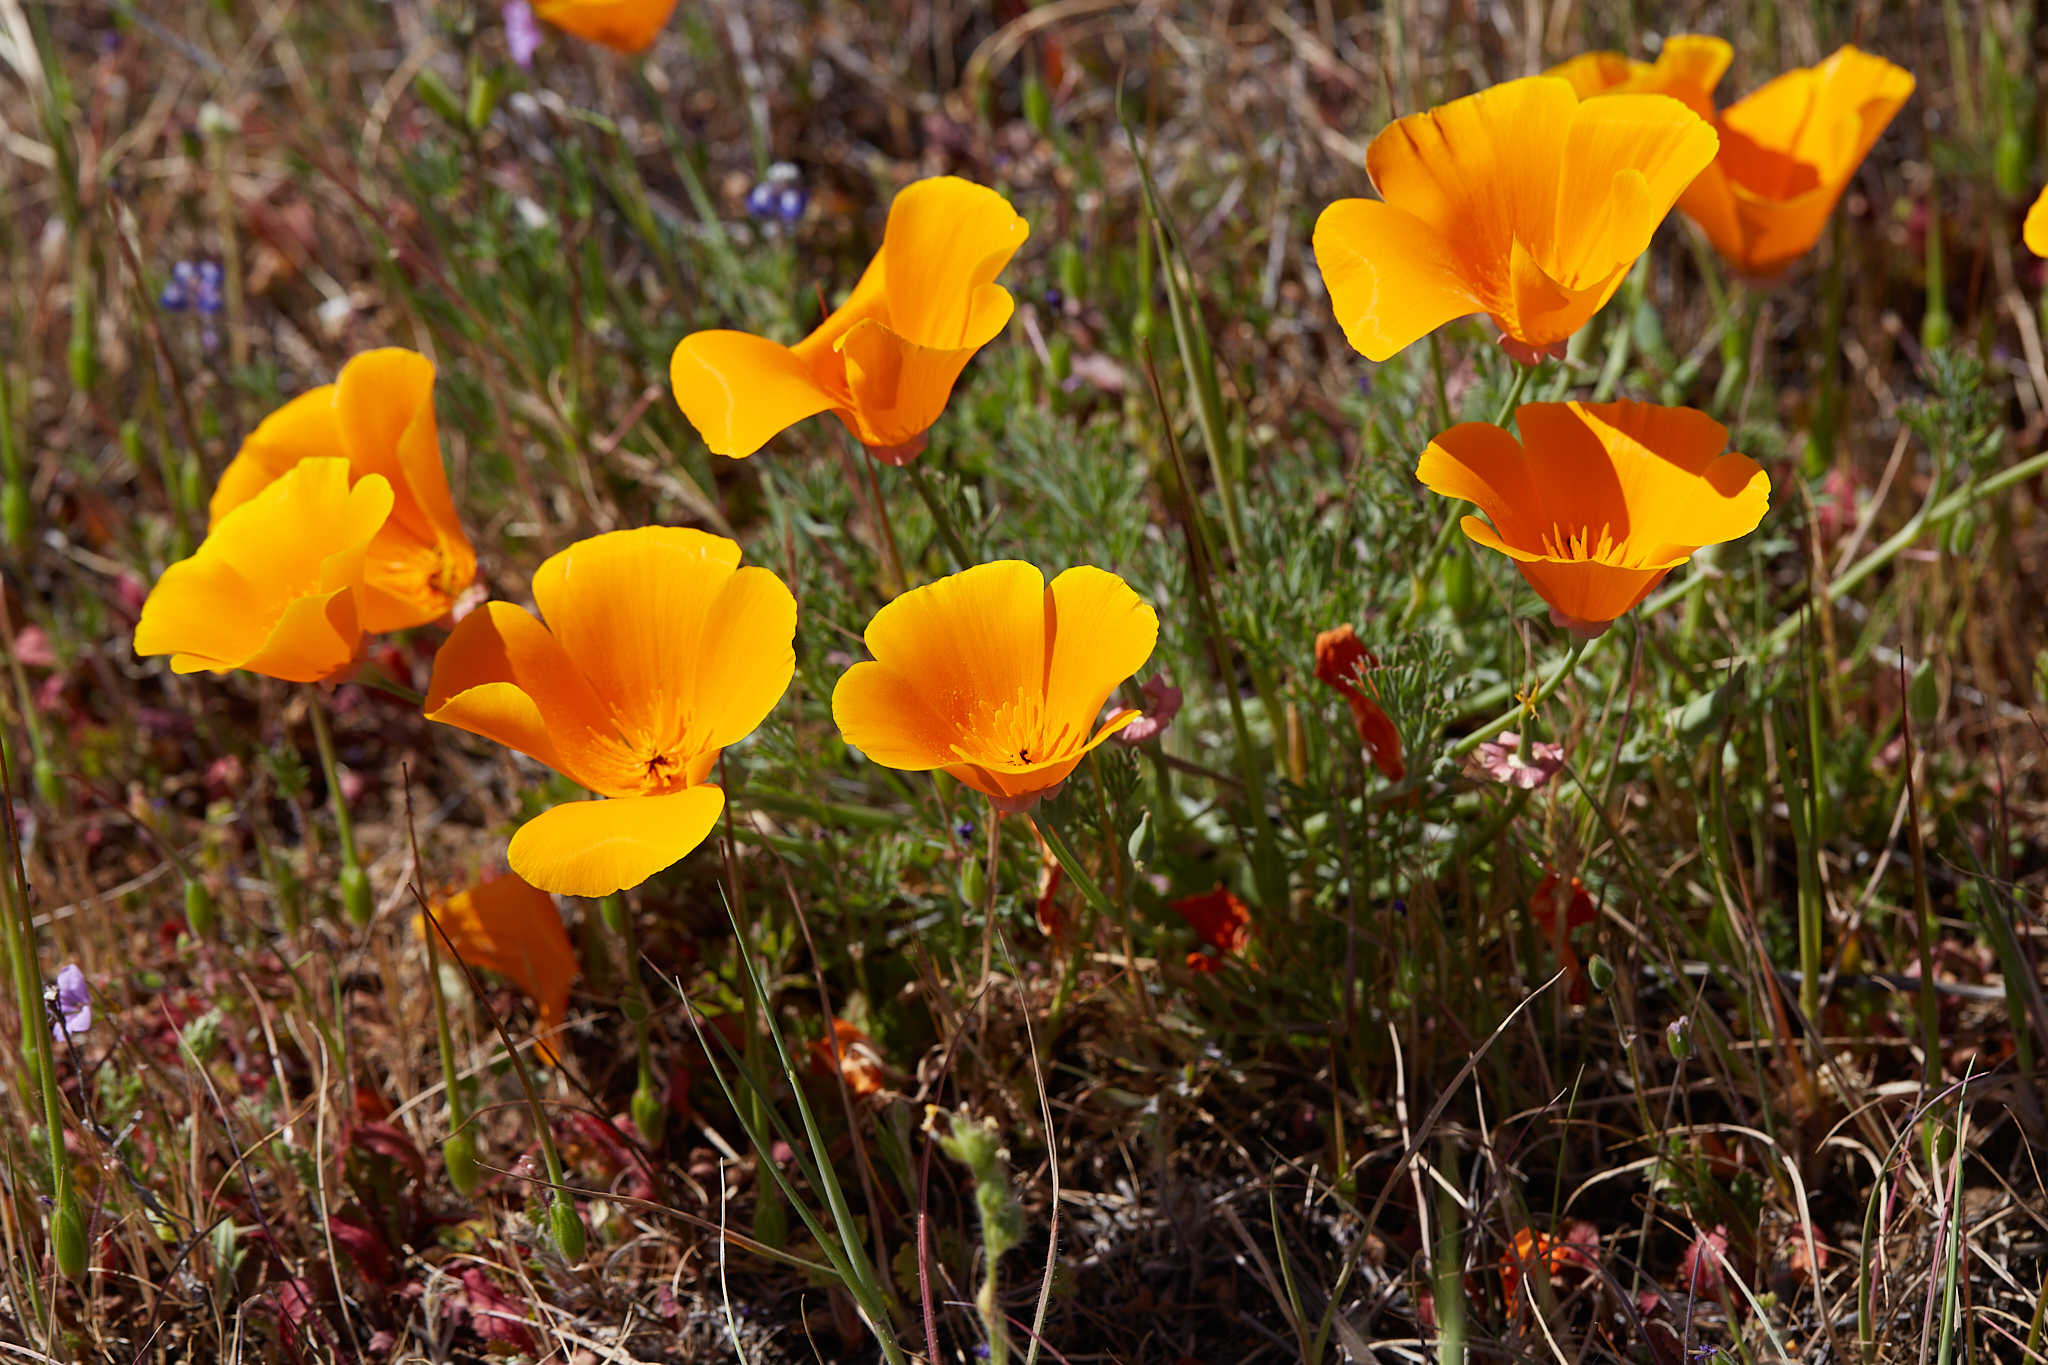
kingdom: Plantae
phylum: Tracheophyta
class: Magnoliopsida
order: Ranunculales
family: Papaveraceae
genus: Eschscholzia
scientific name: Eschscholzia californica
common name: California poppy
